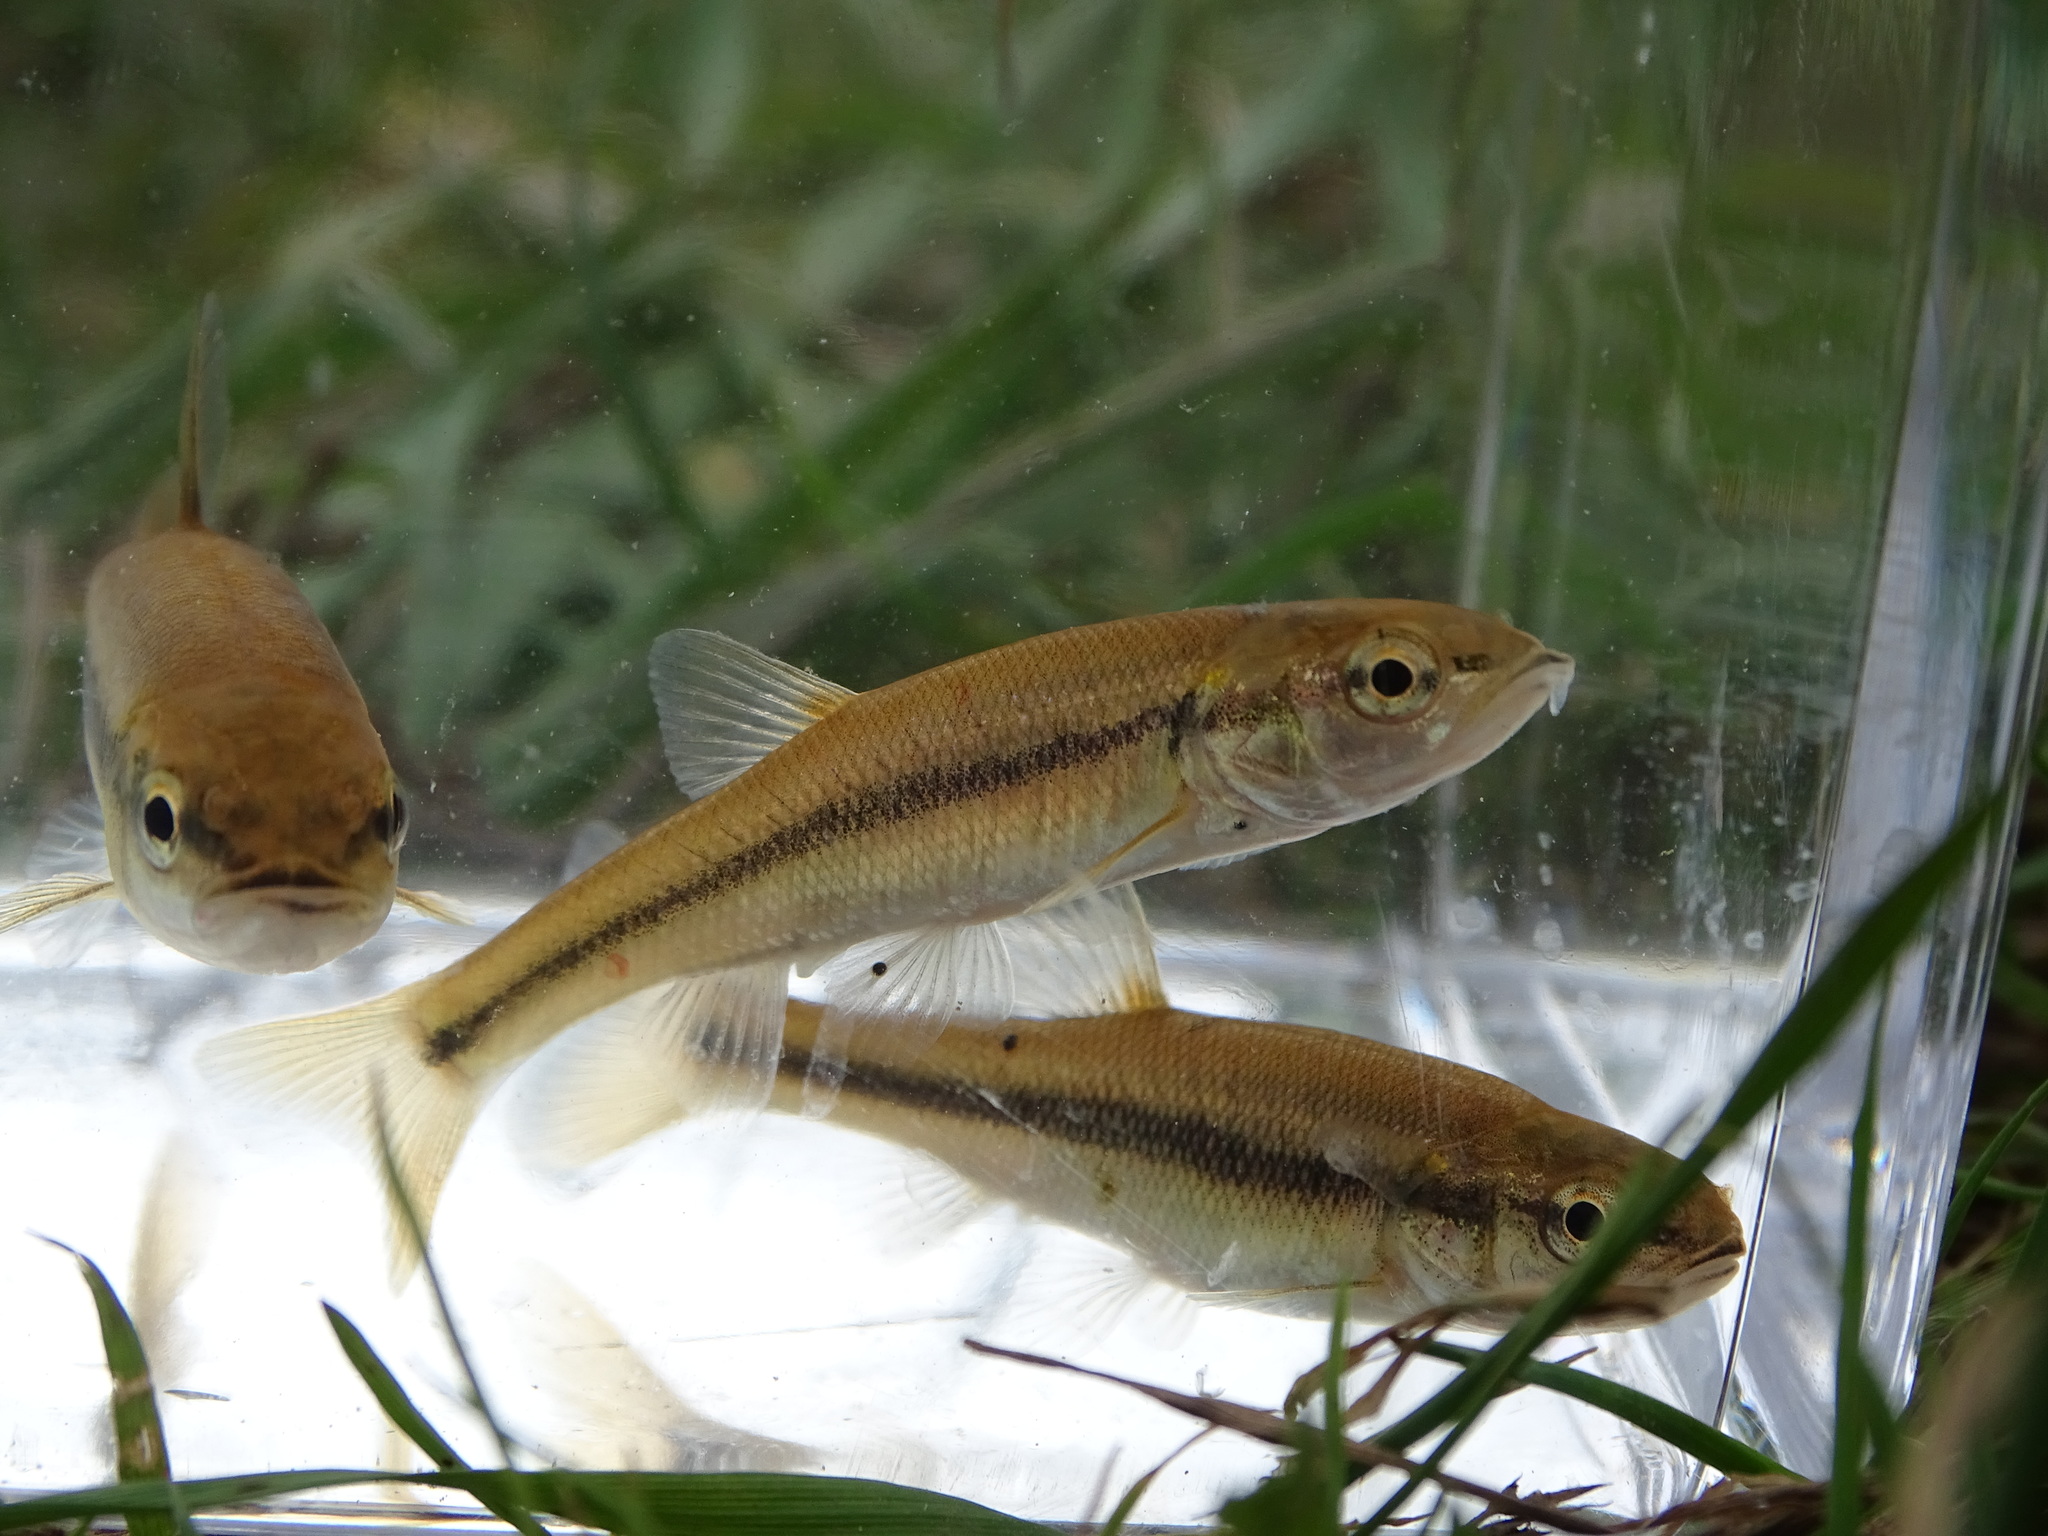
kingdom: Animalia
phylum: Chordata
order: Cypriniformes
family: Cyprinidae
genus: Semotilus
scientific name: Semotilus atromaculatus
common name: Creek chub
